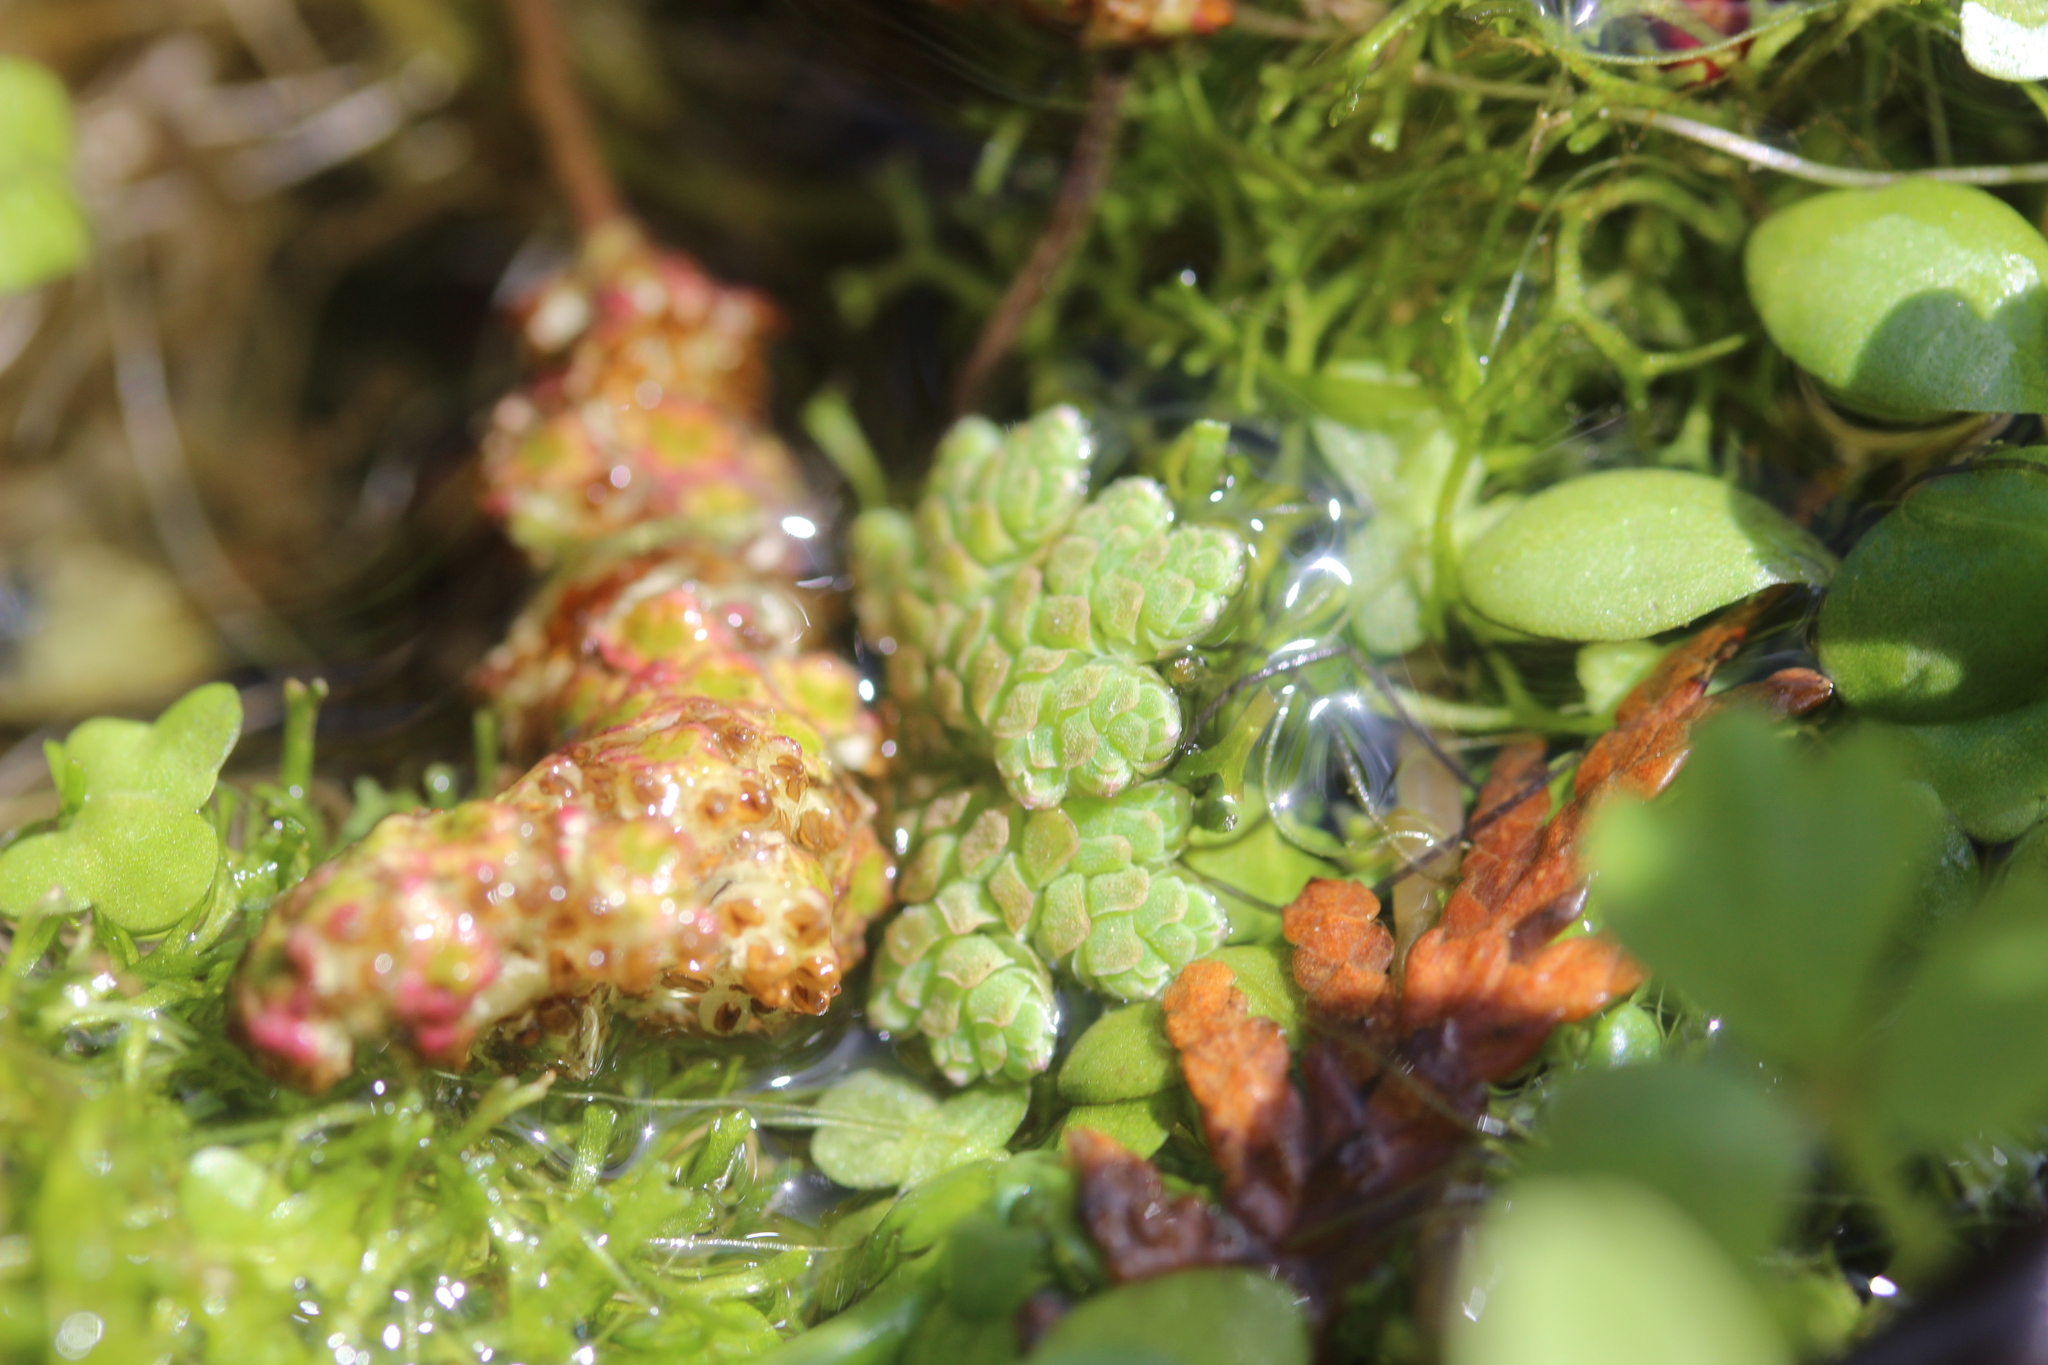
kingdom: Plantae
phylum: Tracheophyta
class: Polypodiopsida
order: Salviniales
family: Salviniaceae
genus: Azolla
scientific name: Azolla rubra
